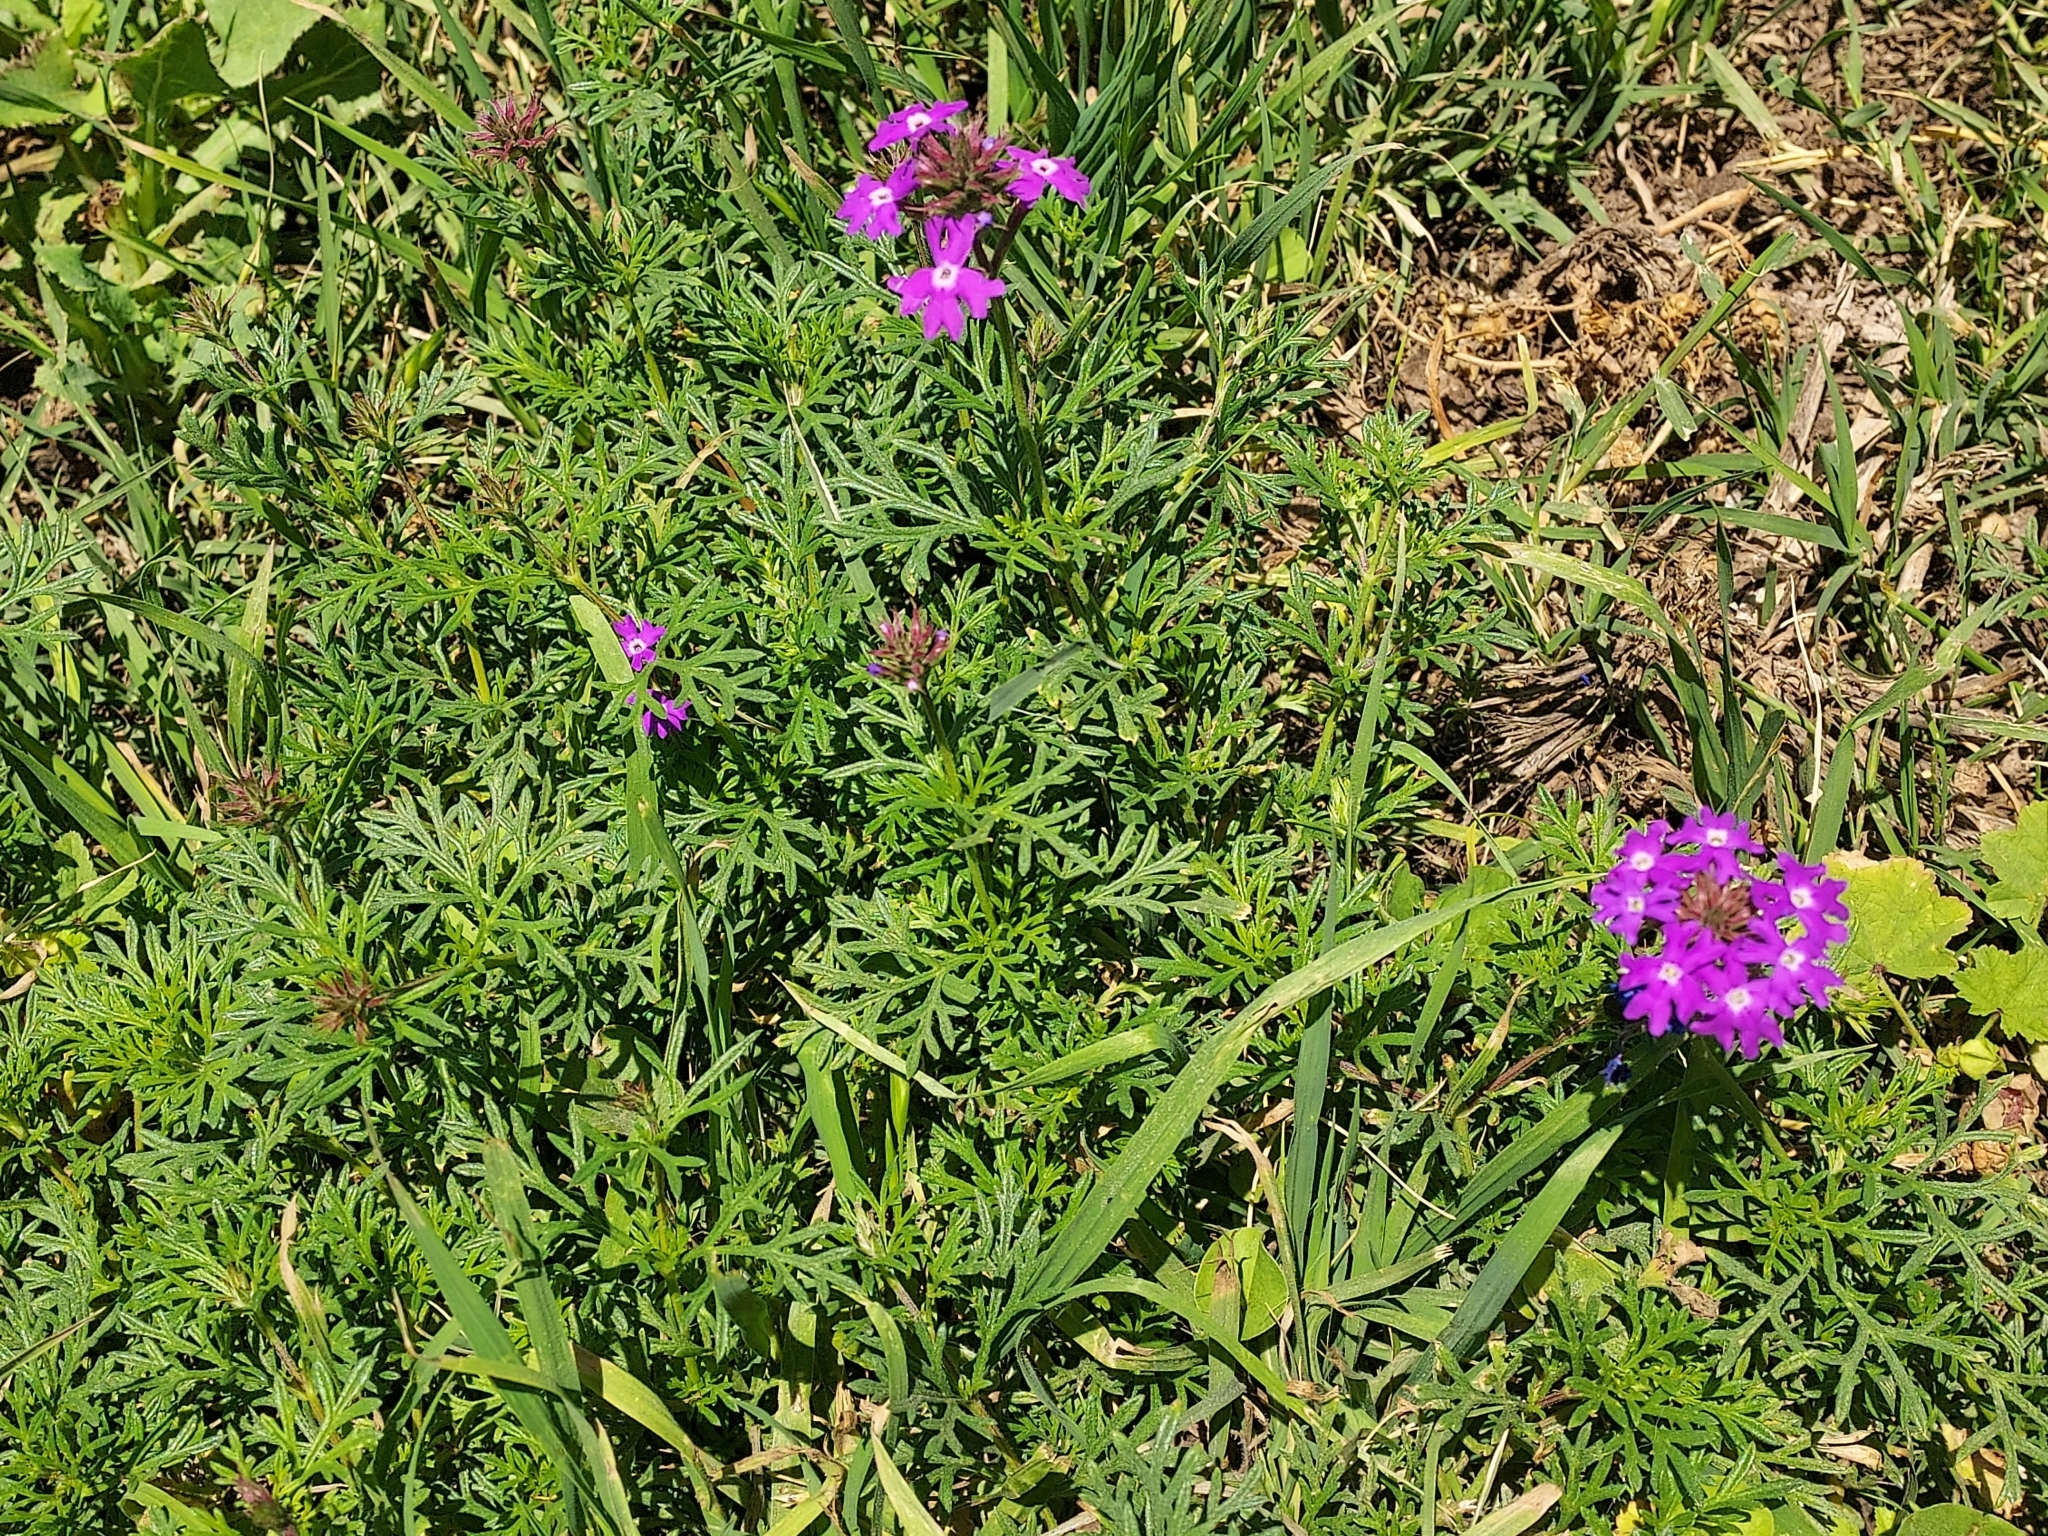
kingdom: Plantae
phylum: Tracheophyta
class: Magnoliopsida
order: Lamiales
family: Verbenaceae
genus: Verbena
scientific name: Verbena
